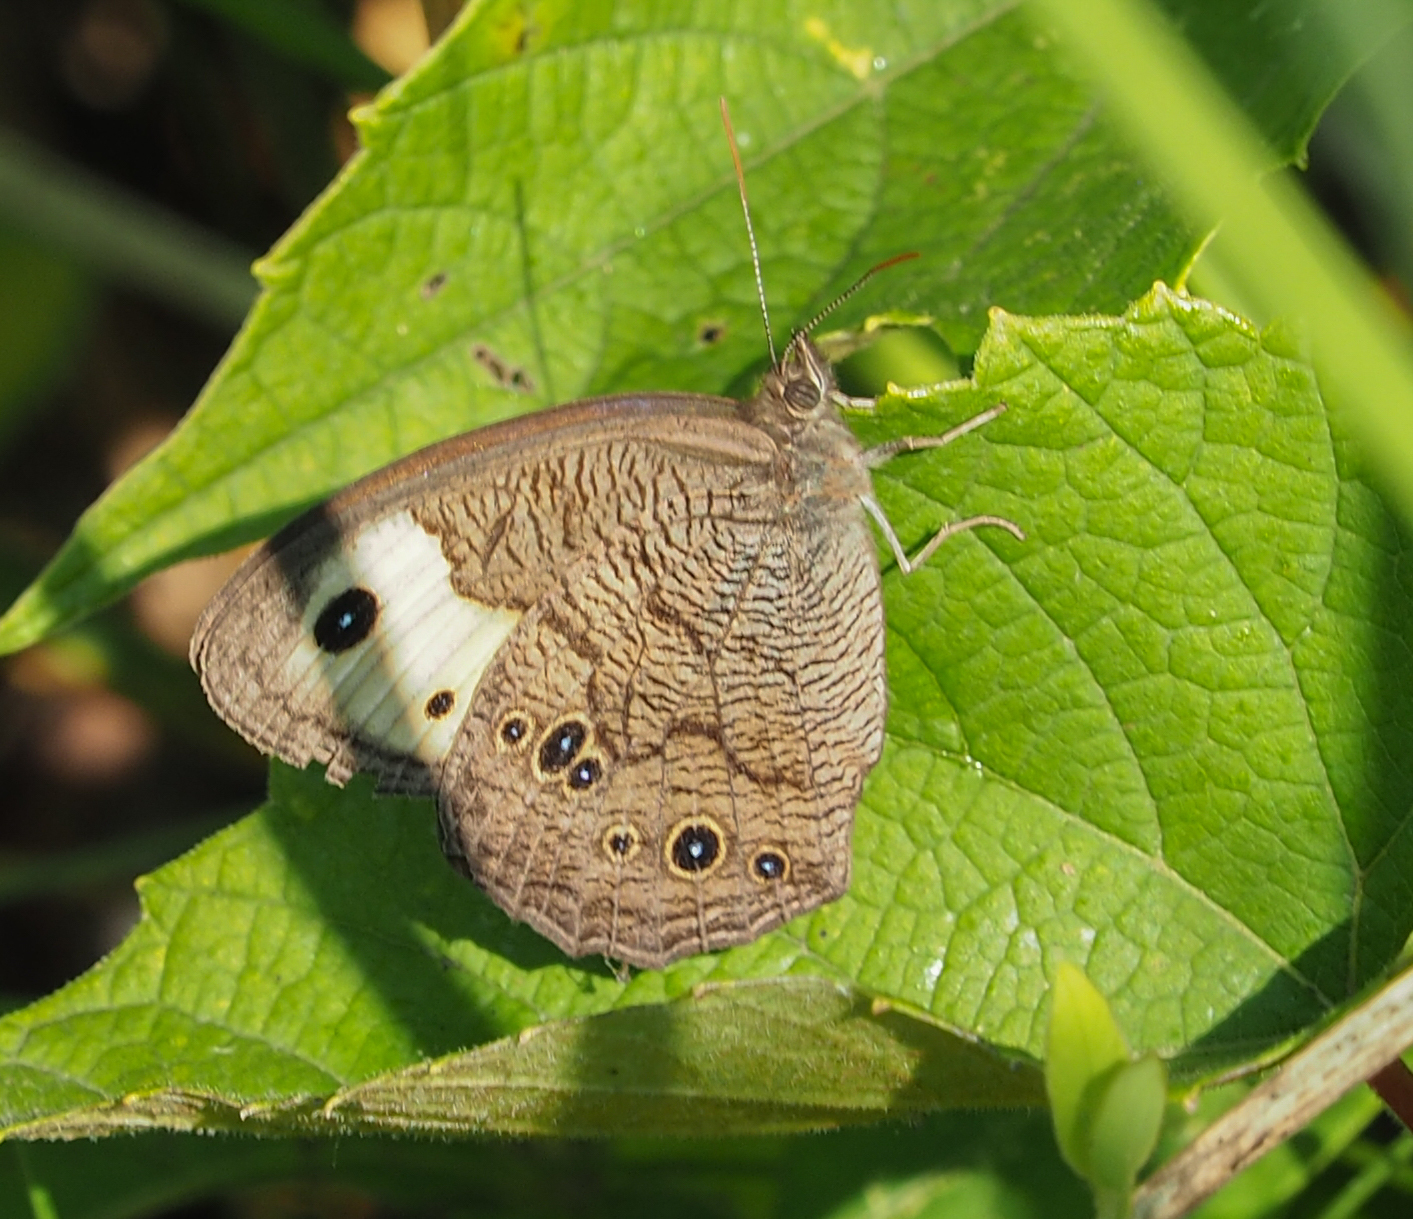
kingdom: Animalia
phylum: Arthropoda
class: Insecta
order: Lepidoptera
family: Nymphalidae
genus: Cercyonis
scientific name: Cercyonis pegala
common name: Common wood-nymph
